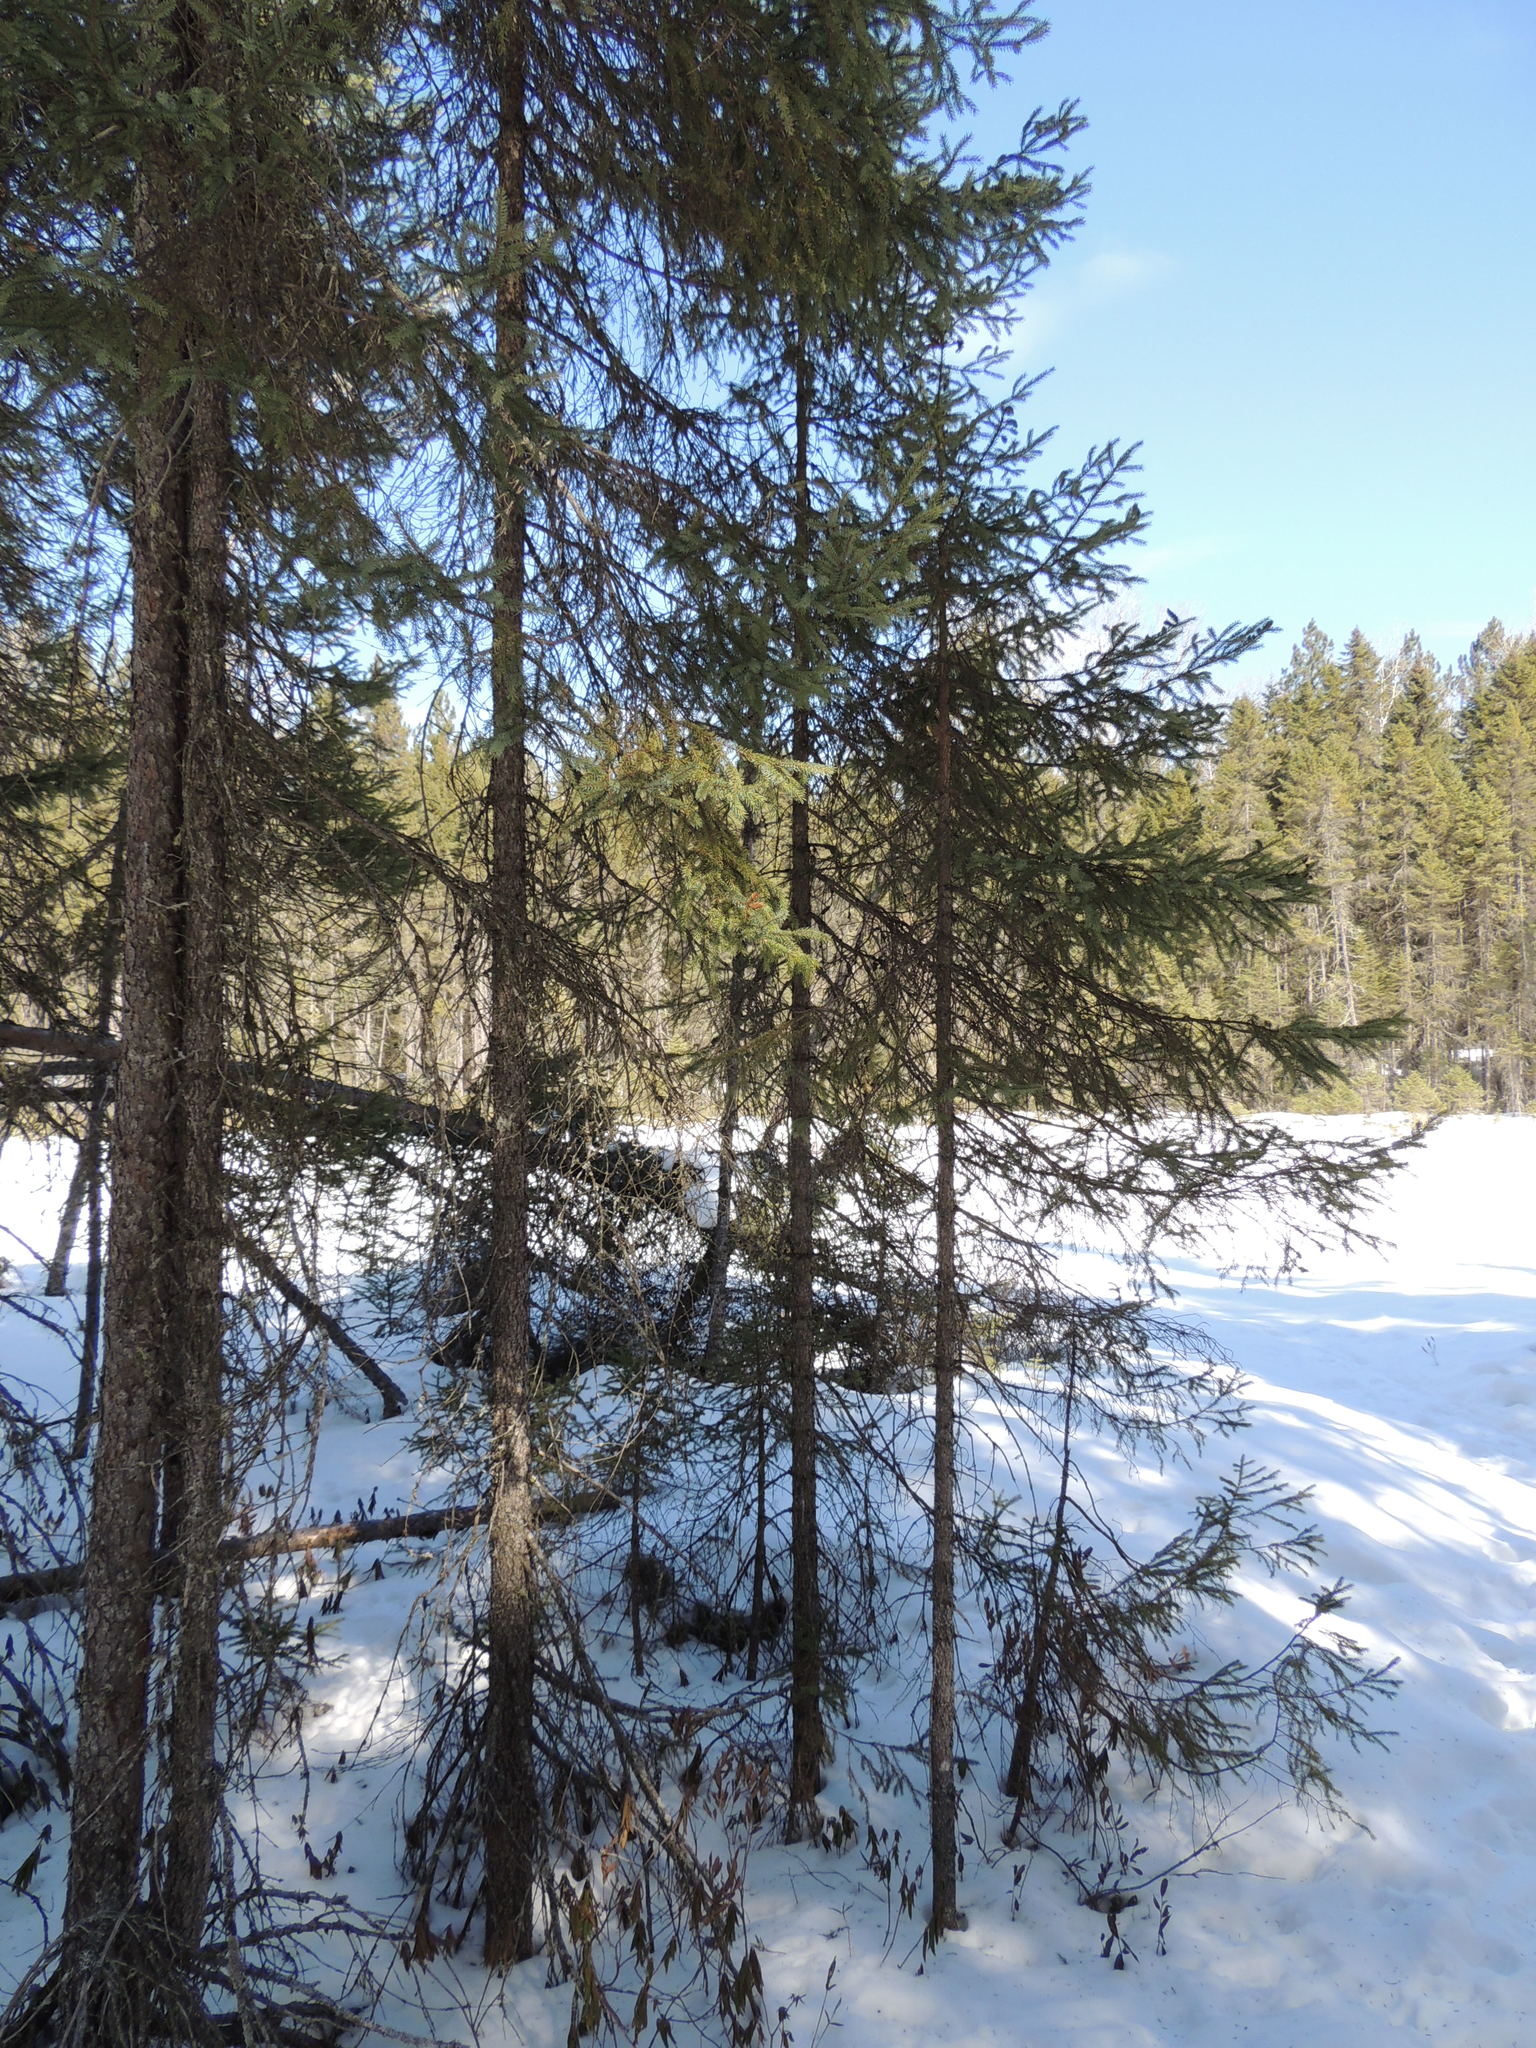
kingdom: Plantae
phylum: Tracheophyta
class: Pinopsida
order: Pinales
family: Pinaceae
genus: Picea
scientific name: Picea mariana
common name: Black spruce
